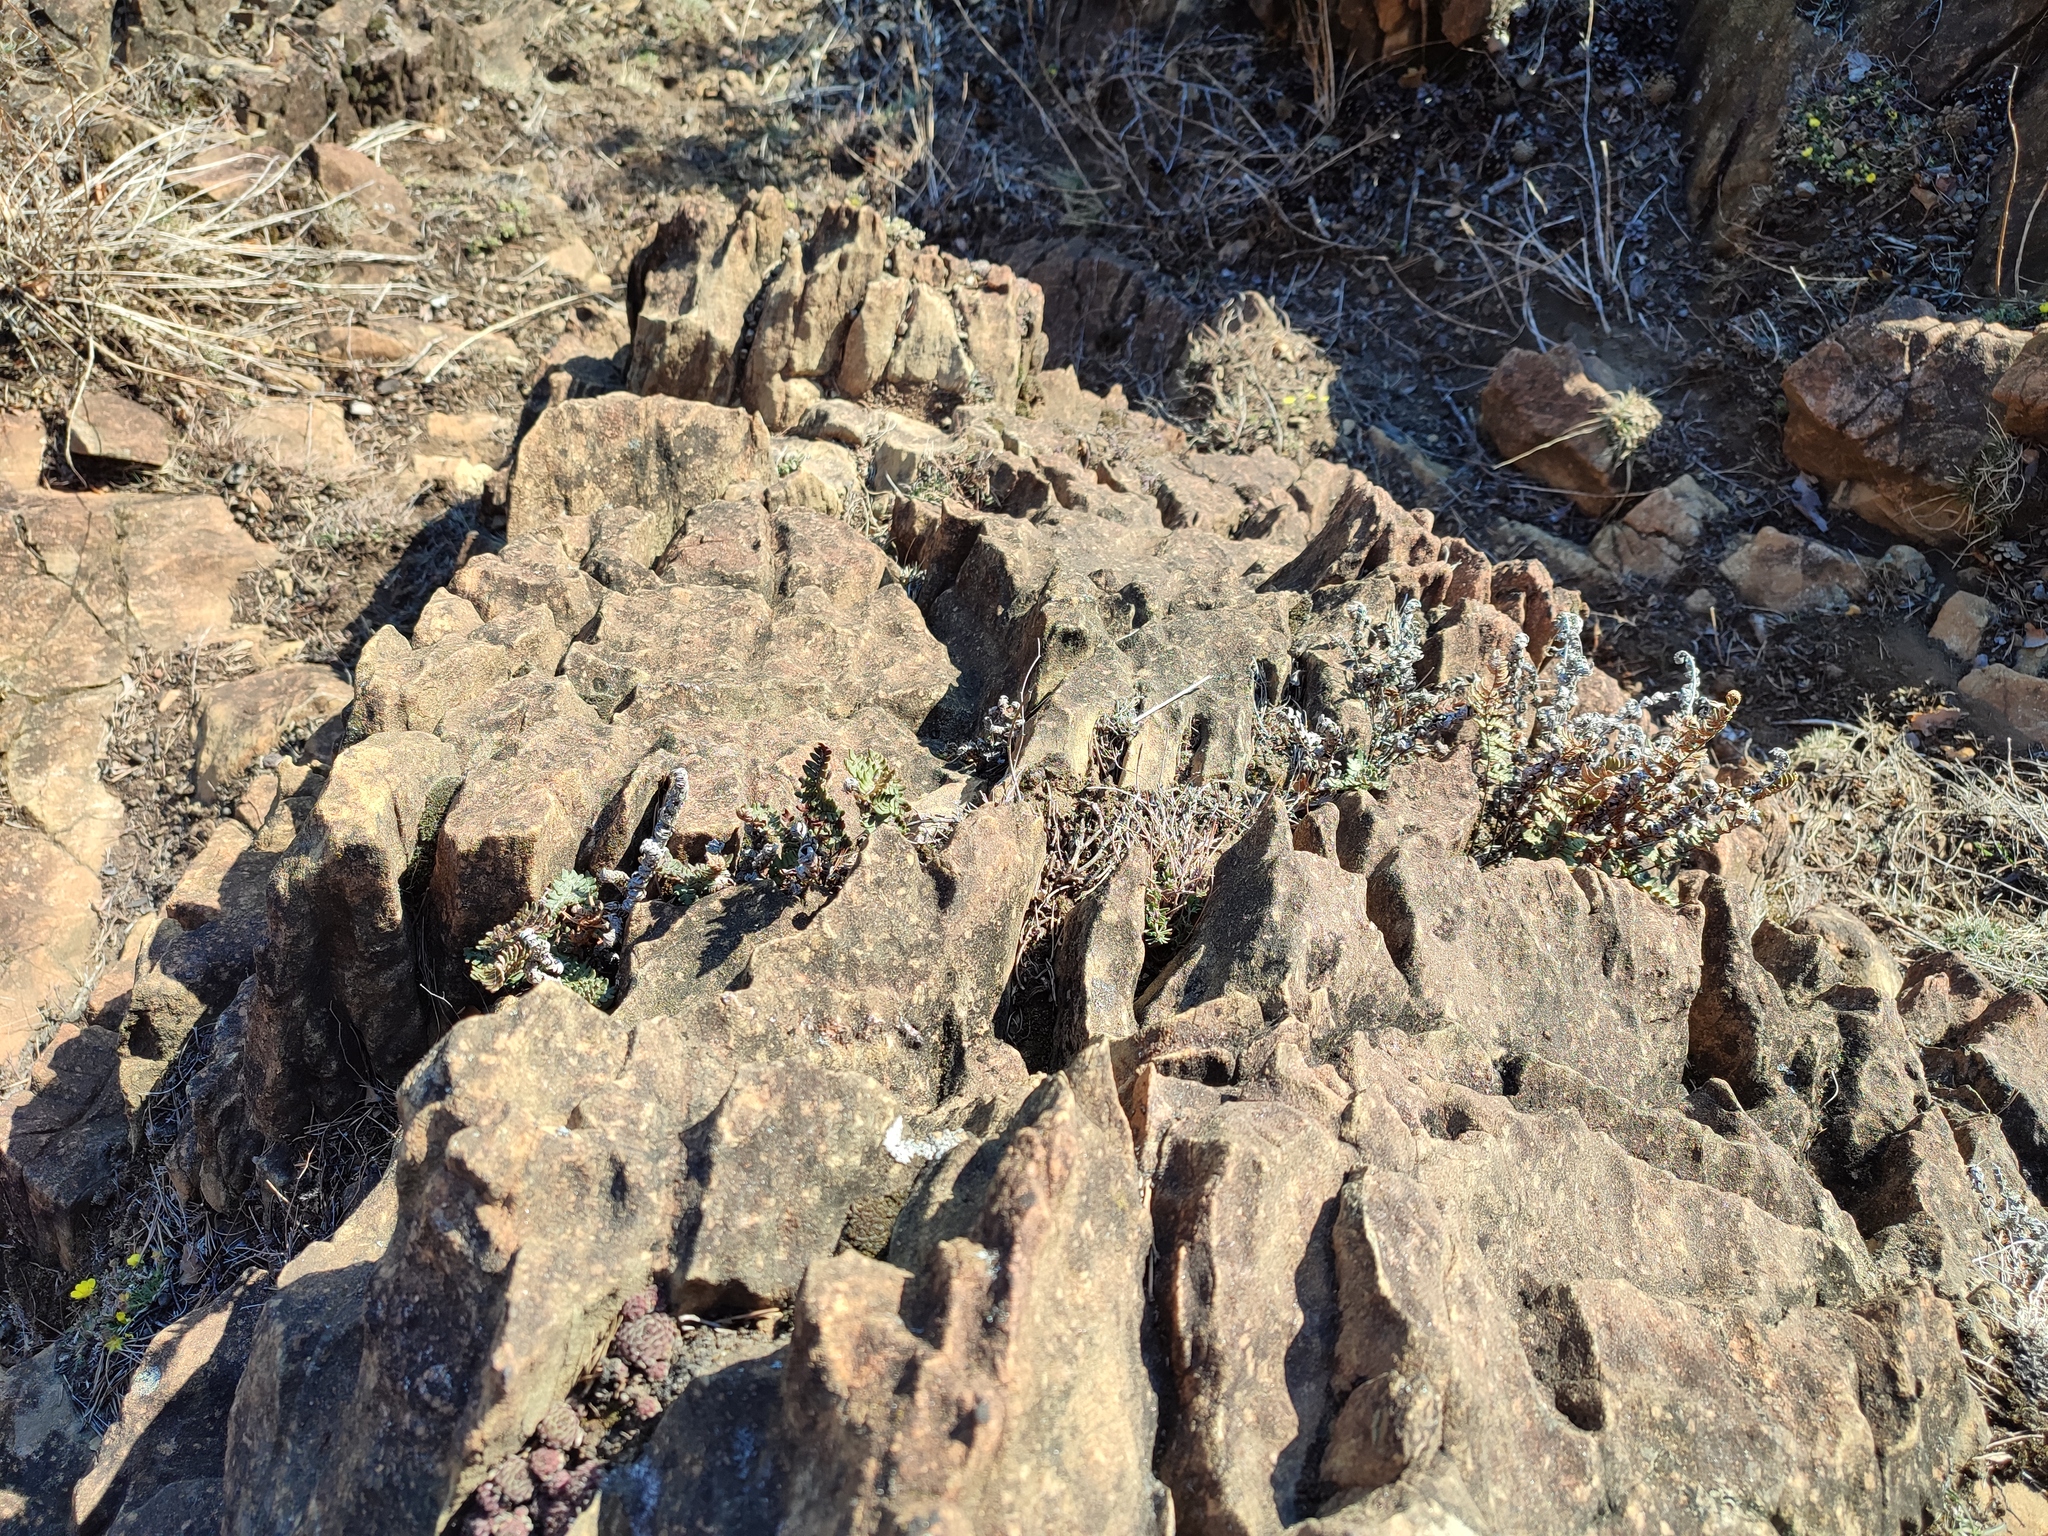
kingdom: Plantae
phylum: Tracheophyta
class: Polypodiopsida
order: Polypodiales
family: Pteridaceae
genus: Paragymnopteris
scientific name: Paragymnopteris marantae
